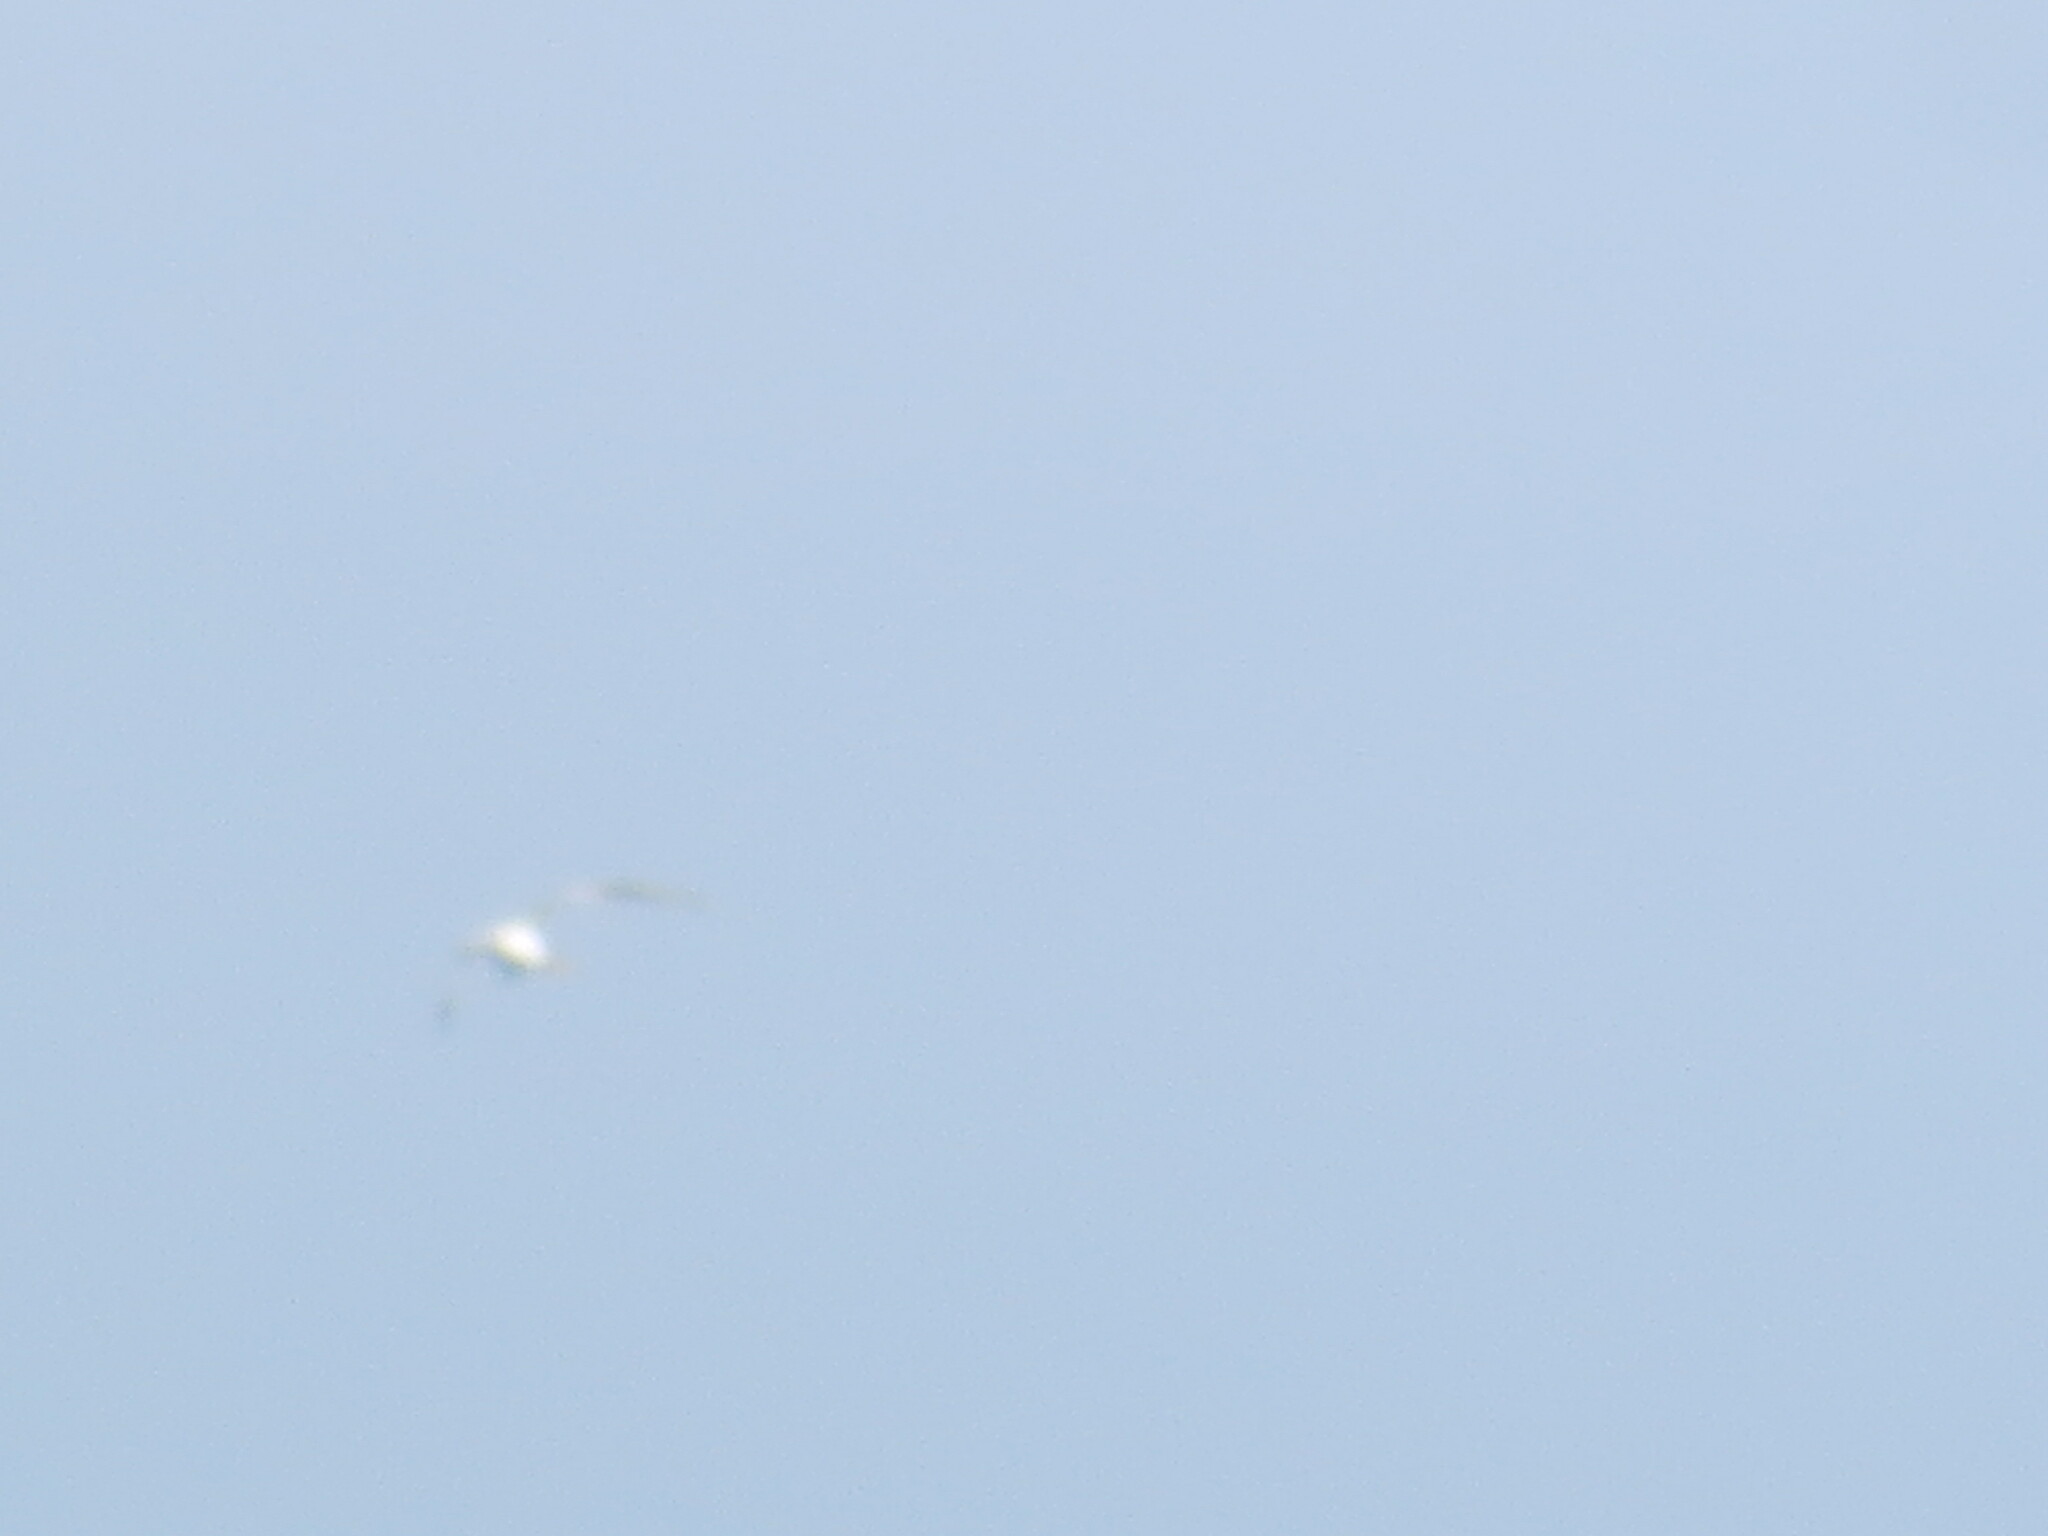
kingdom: Animalia
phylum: Chordata
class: Aves
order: Charadriiformes
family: Laridae
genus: Thalasseus
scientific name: Thalasseus maximus
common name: Royal tern
